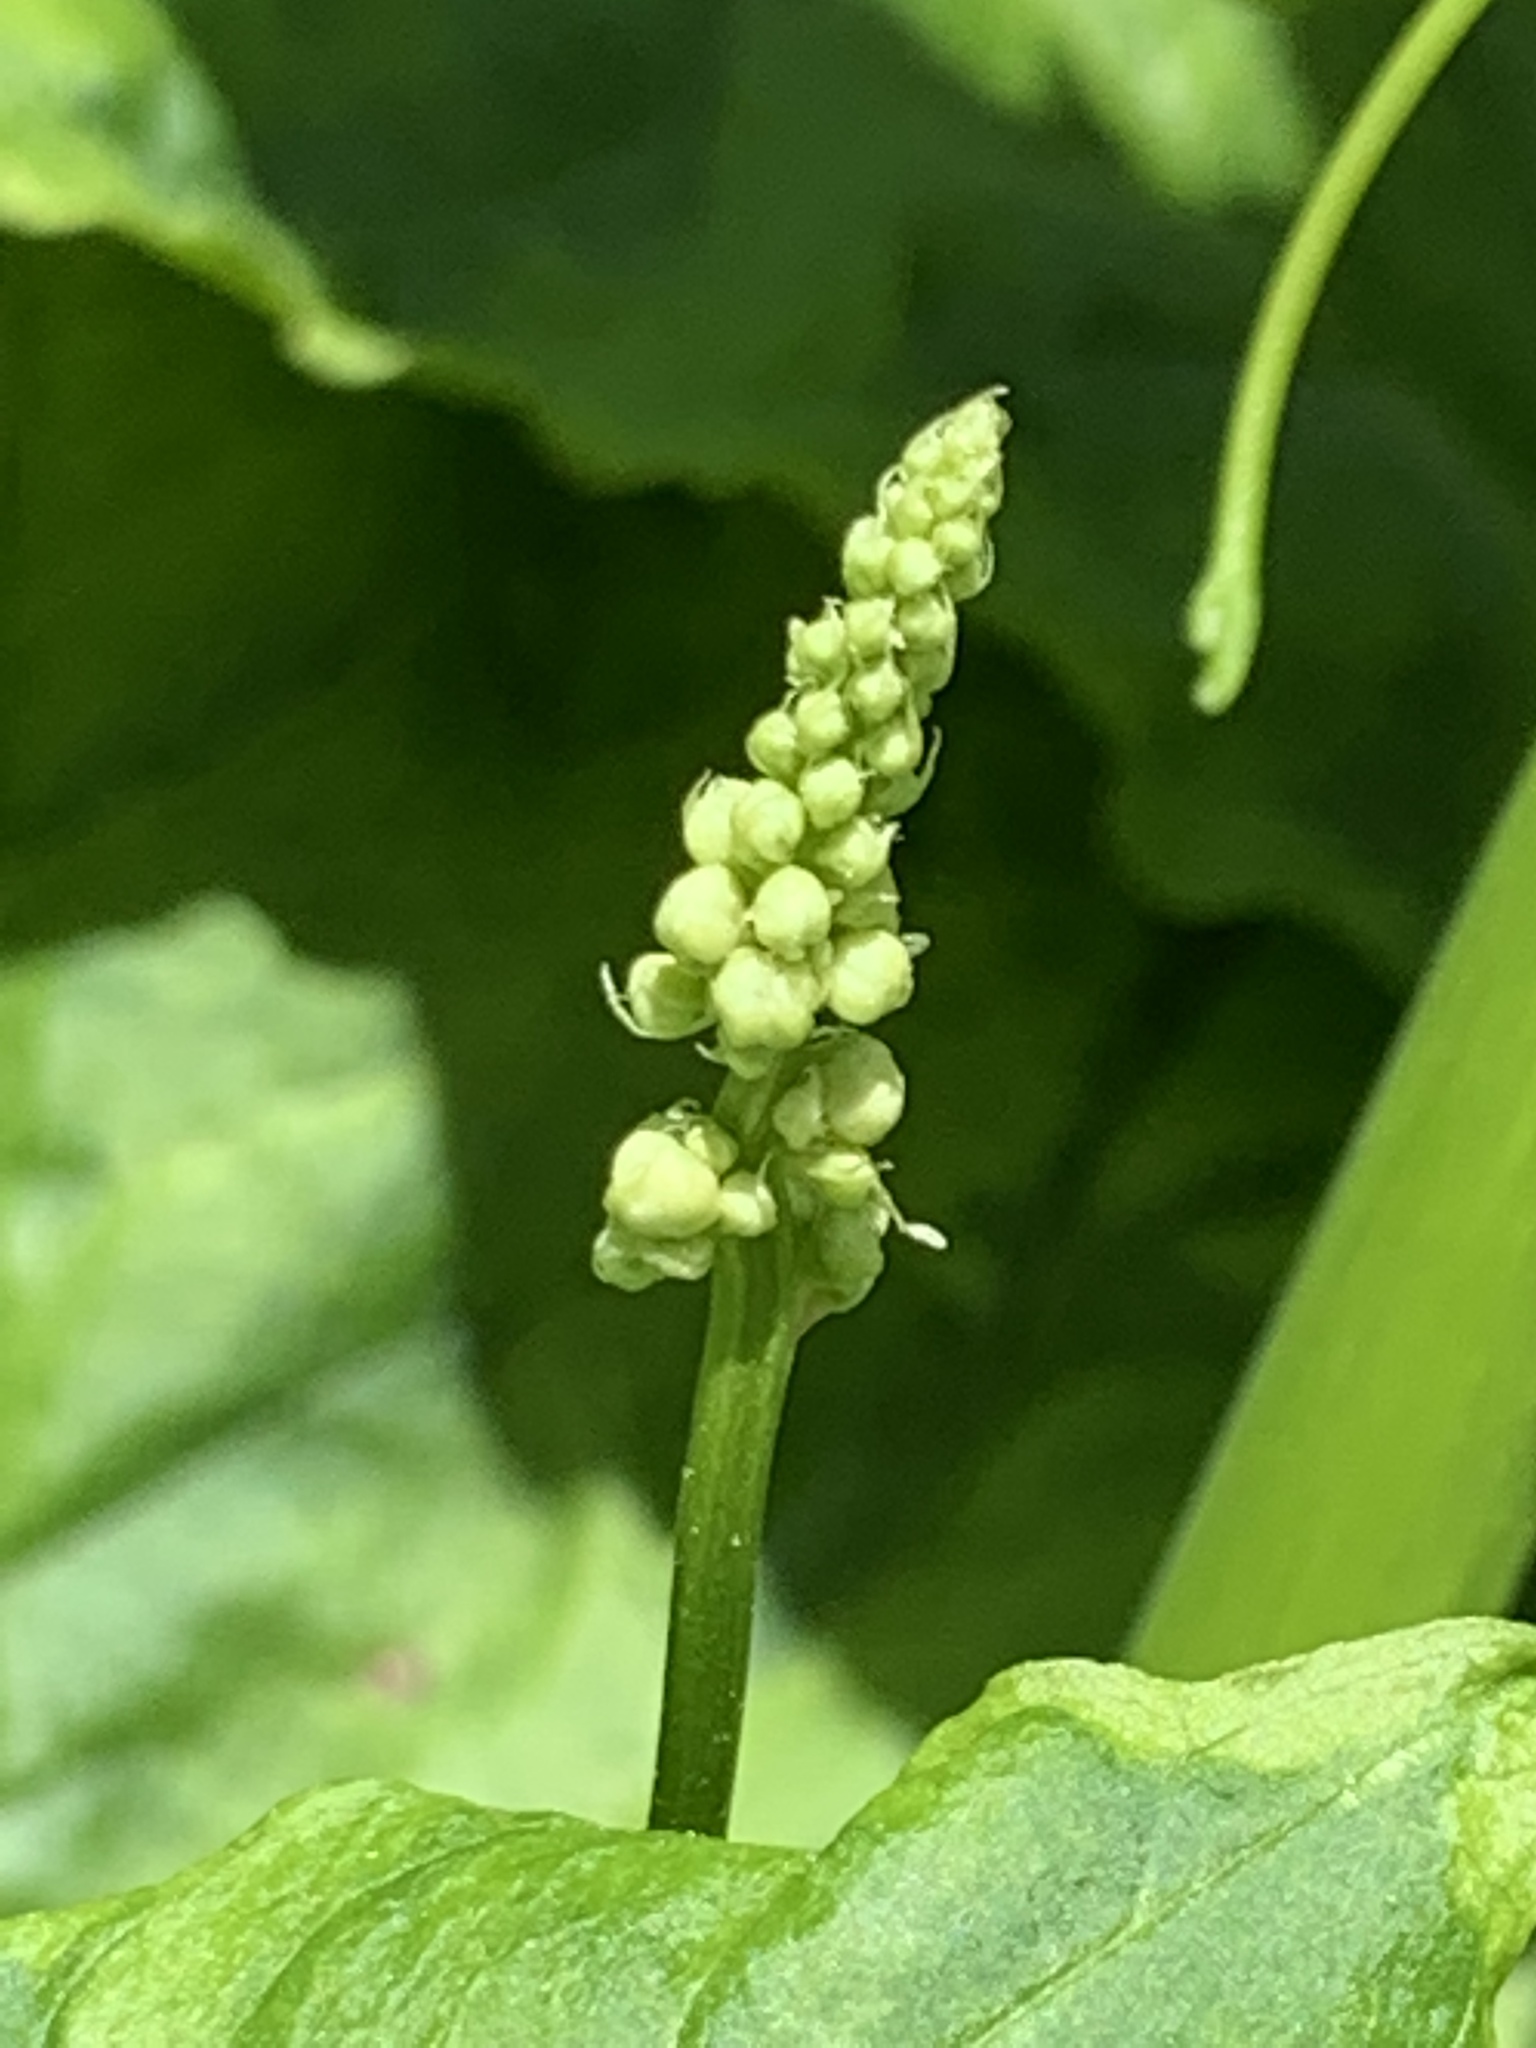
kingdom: Plantae
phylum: Tracheophyta
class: Magnoliopsida
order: Caryophyllales
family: Phytolaccaceae
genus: Phytolacca
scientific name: Phytolacca americana
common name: American pokeweed
